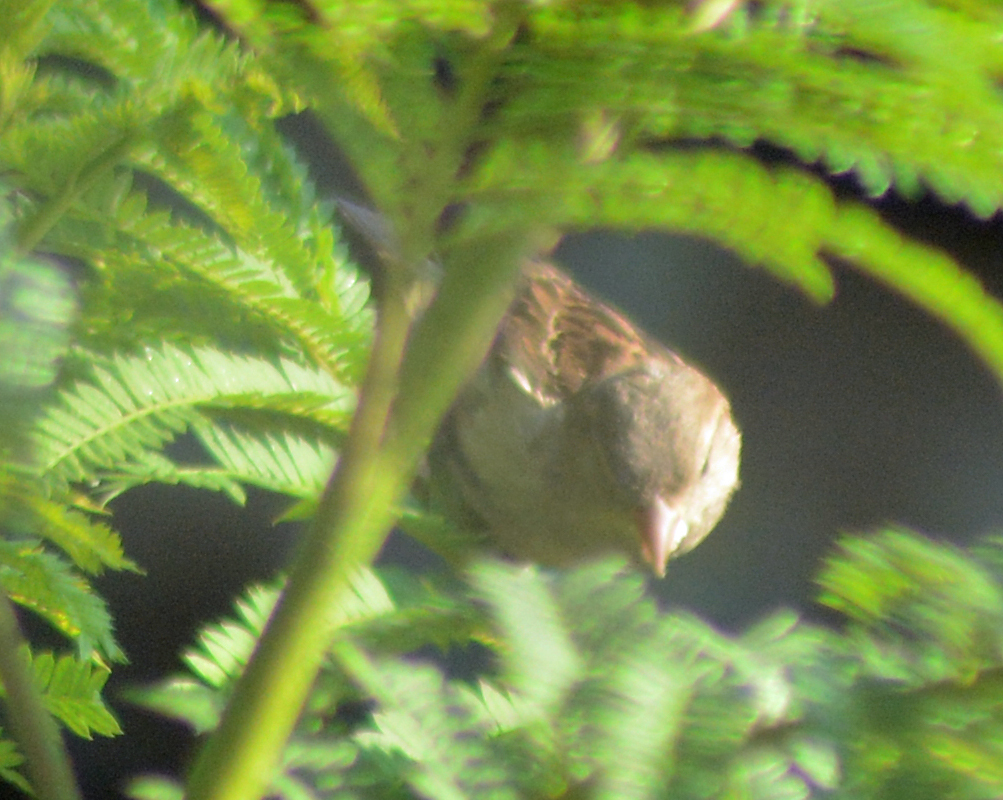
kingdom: Animalia
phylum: Chordata
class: Aves
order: Passeriformes
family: Passeridae
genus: Passer
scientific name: Passer domesticus
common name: House sparrow
